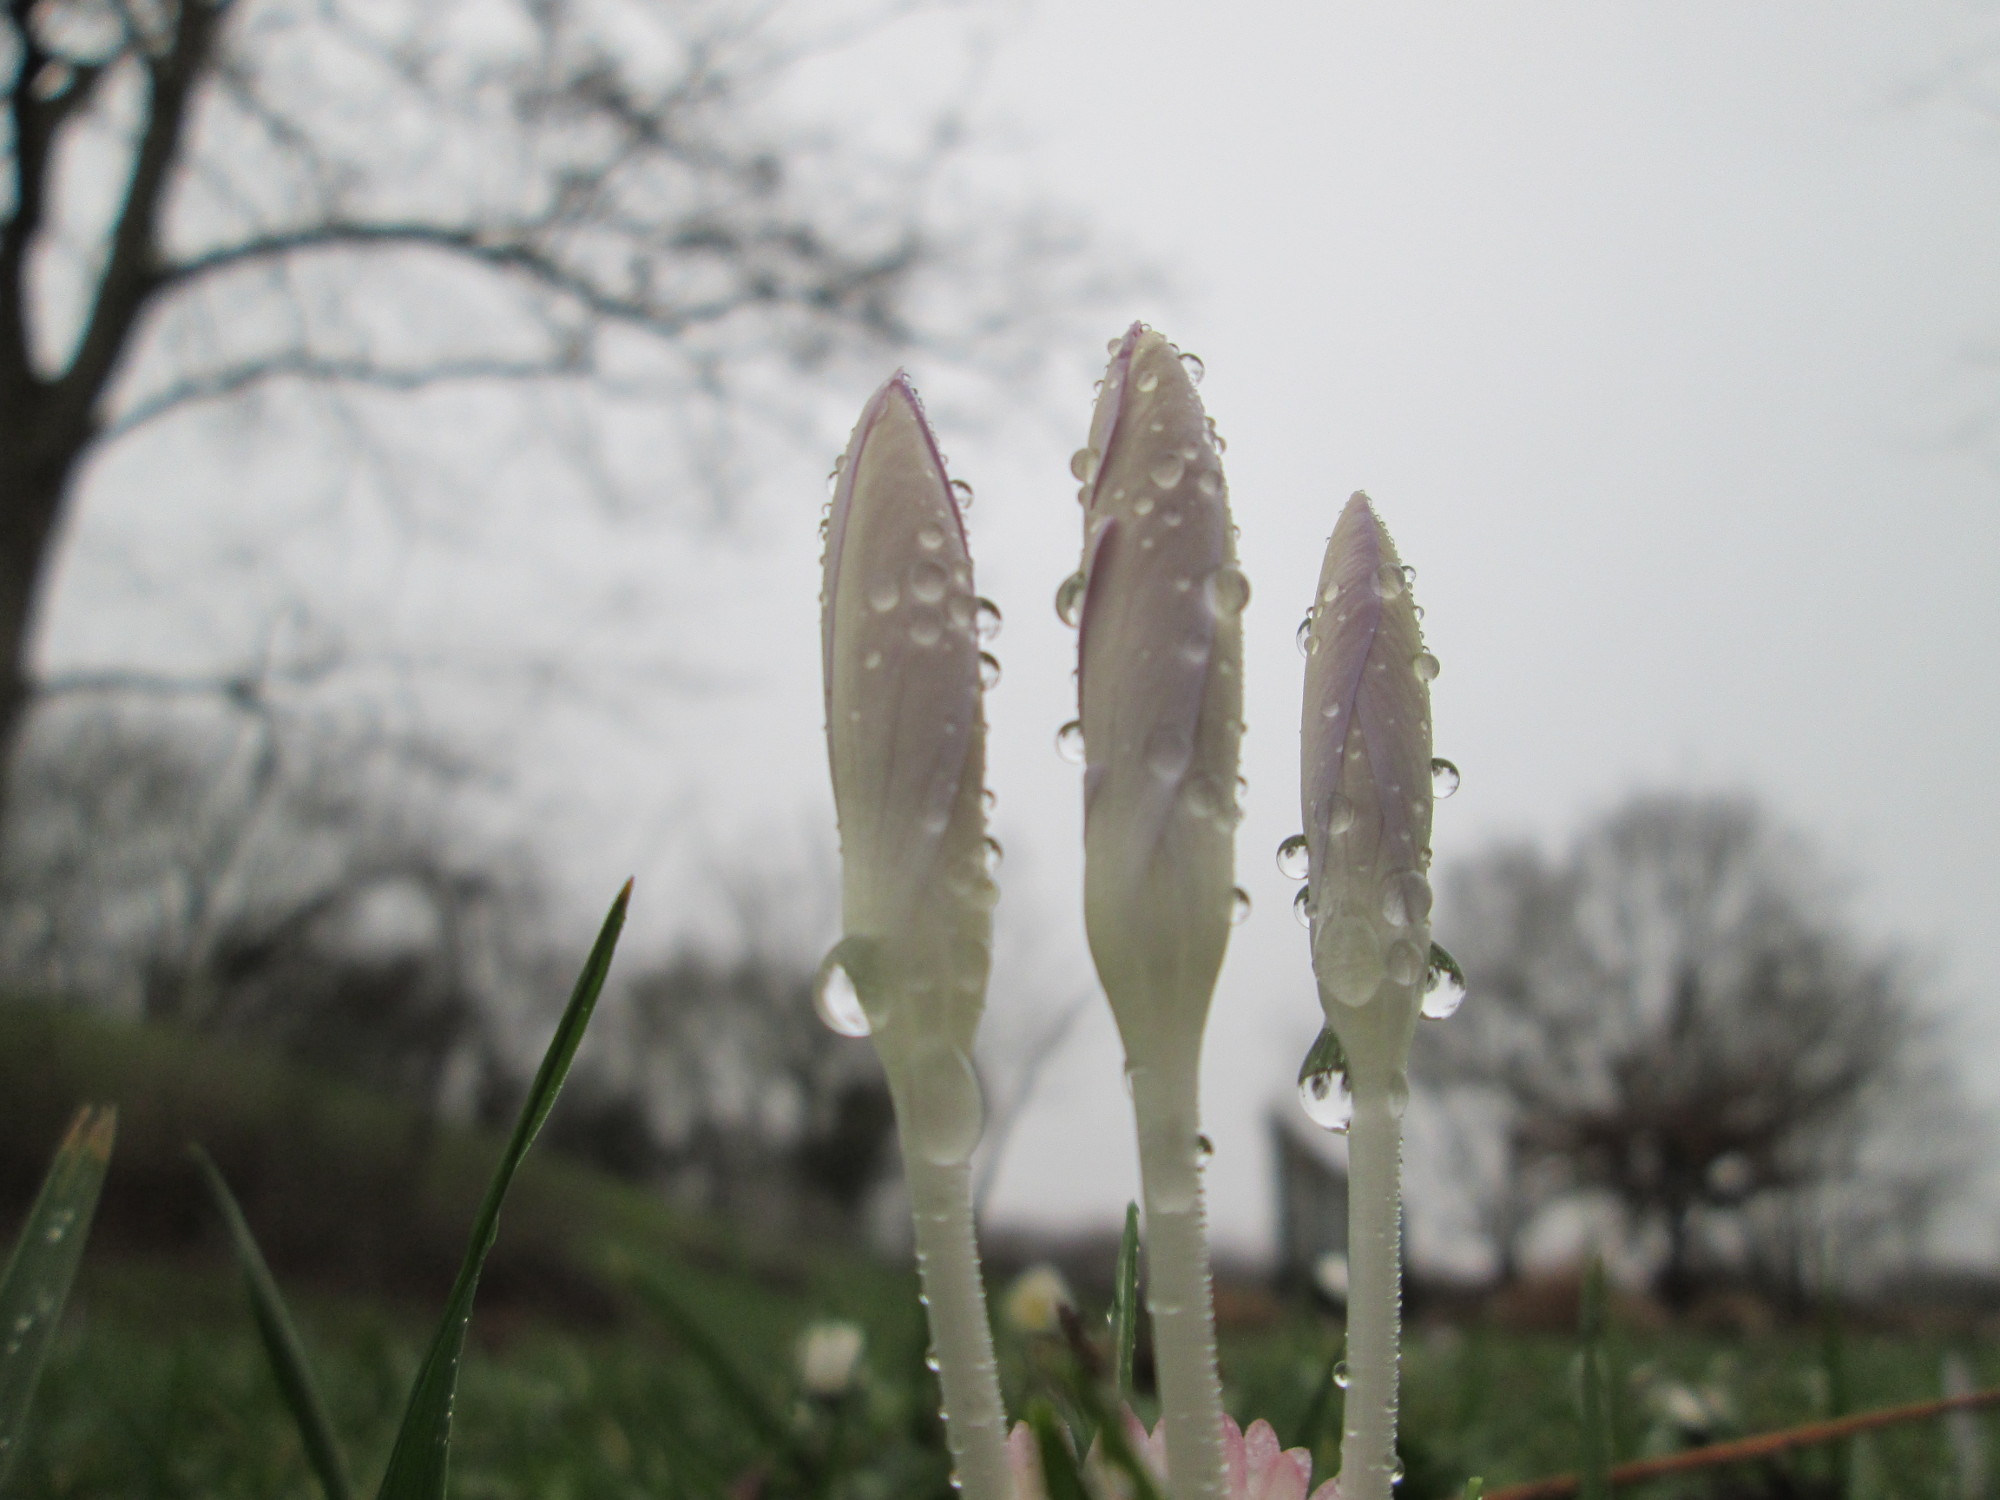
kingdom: Plantae
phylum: Tracheophyta
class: Liliopsida
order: Asparagales
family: Iridaceae
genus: Crocus
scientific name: Crocus tommasinianus
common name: Early crocus
